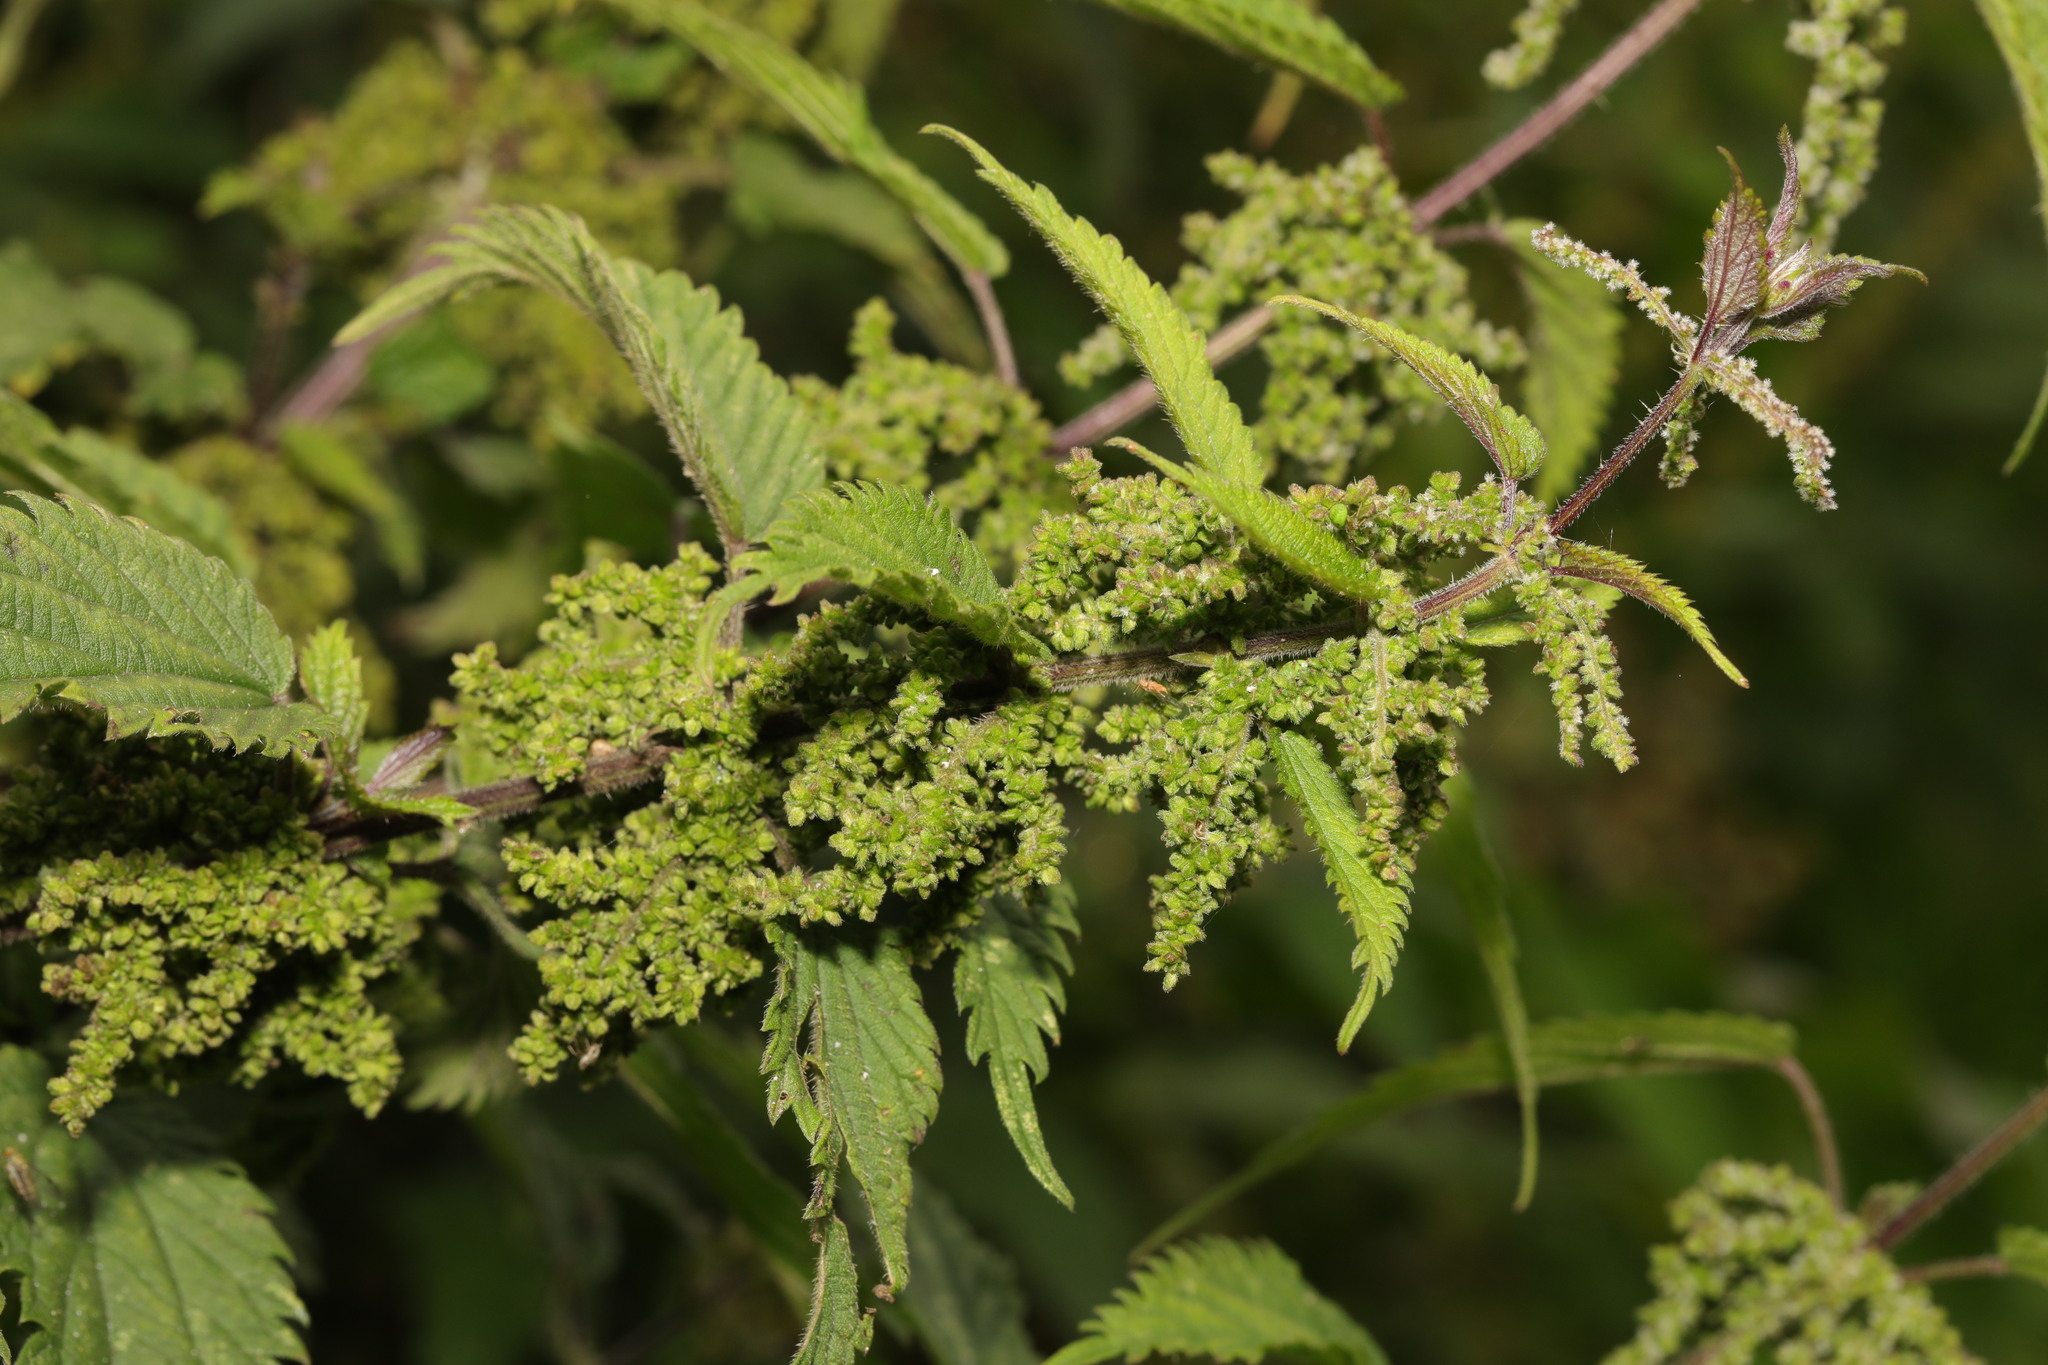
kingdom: Plantae
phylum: Tracheophyta
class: Magnoliopsida
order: Rosales
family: Urticaceae
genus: Urtica
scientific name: Urtica dioica
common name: Common nettle
